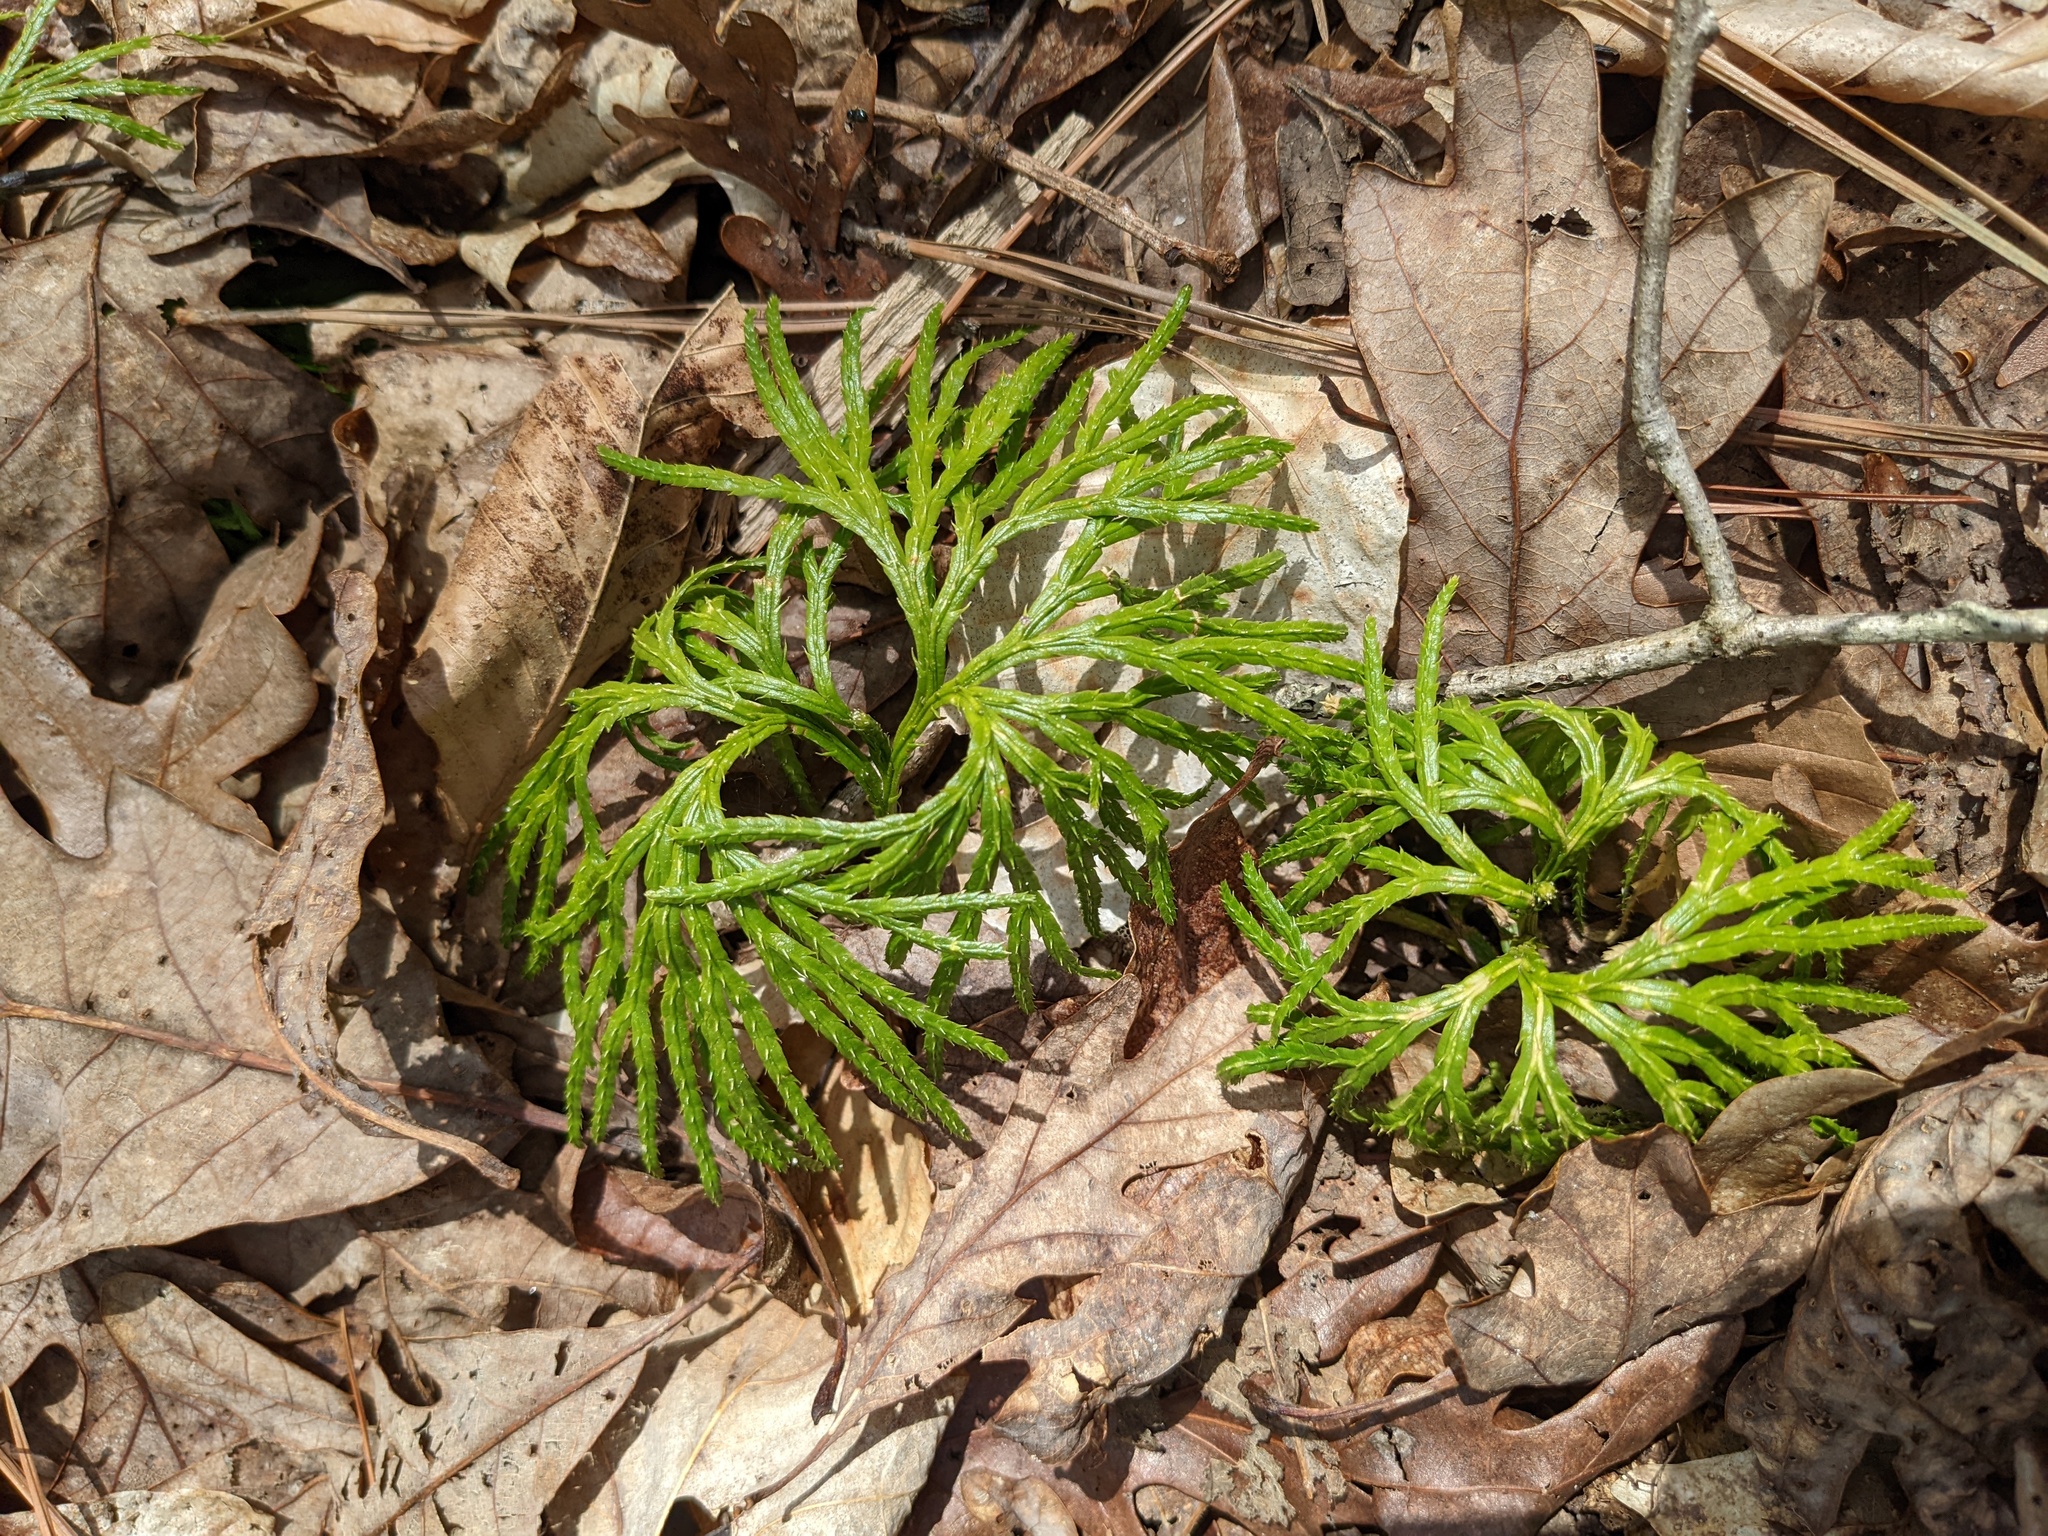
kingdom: Plantae
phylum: Tracheophyta
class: Lycopodiopsida
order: Lycopodiales
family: Lycopodiaceae
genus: Diphasiastrum
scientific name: Diphasiastrum digitatum
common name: Southern running-pine
